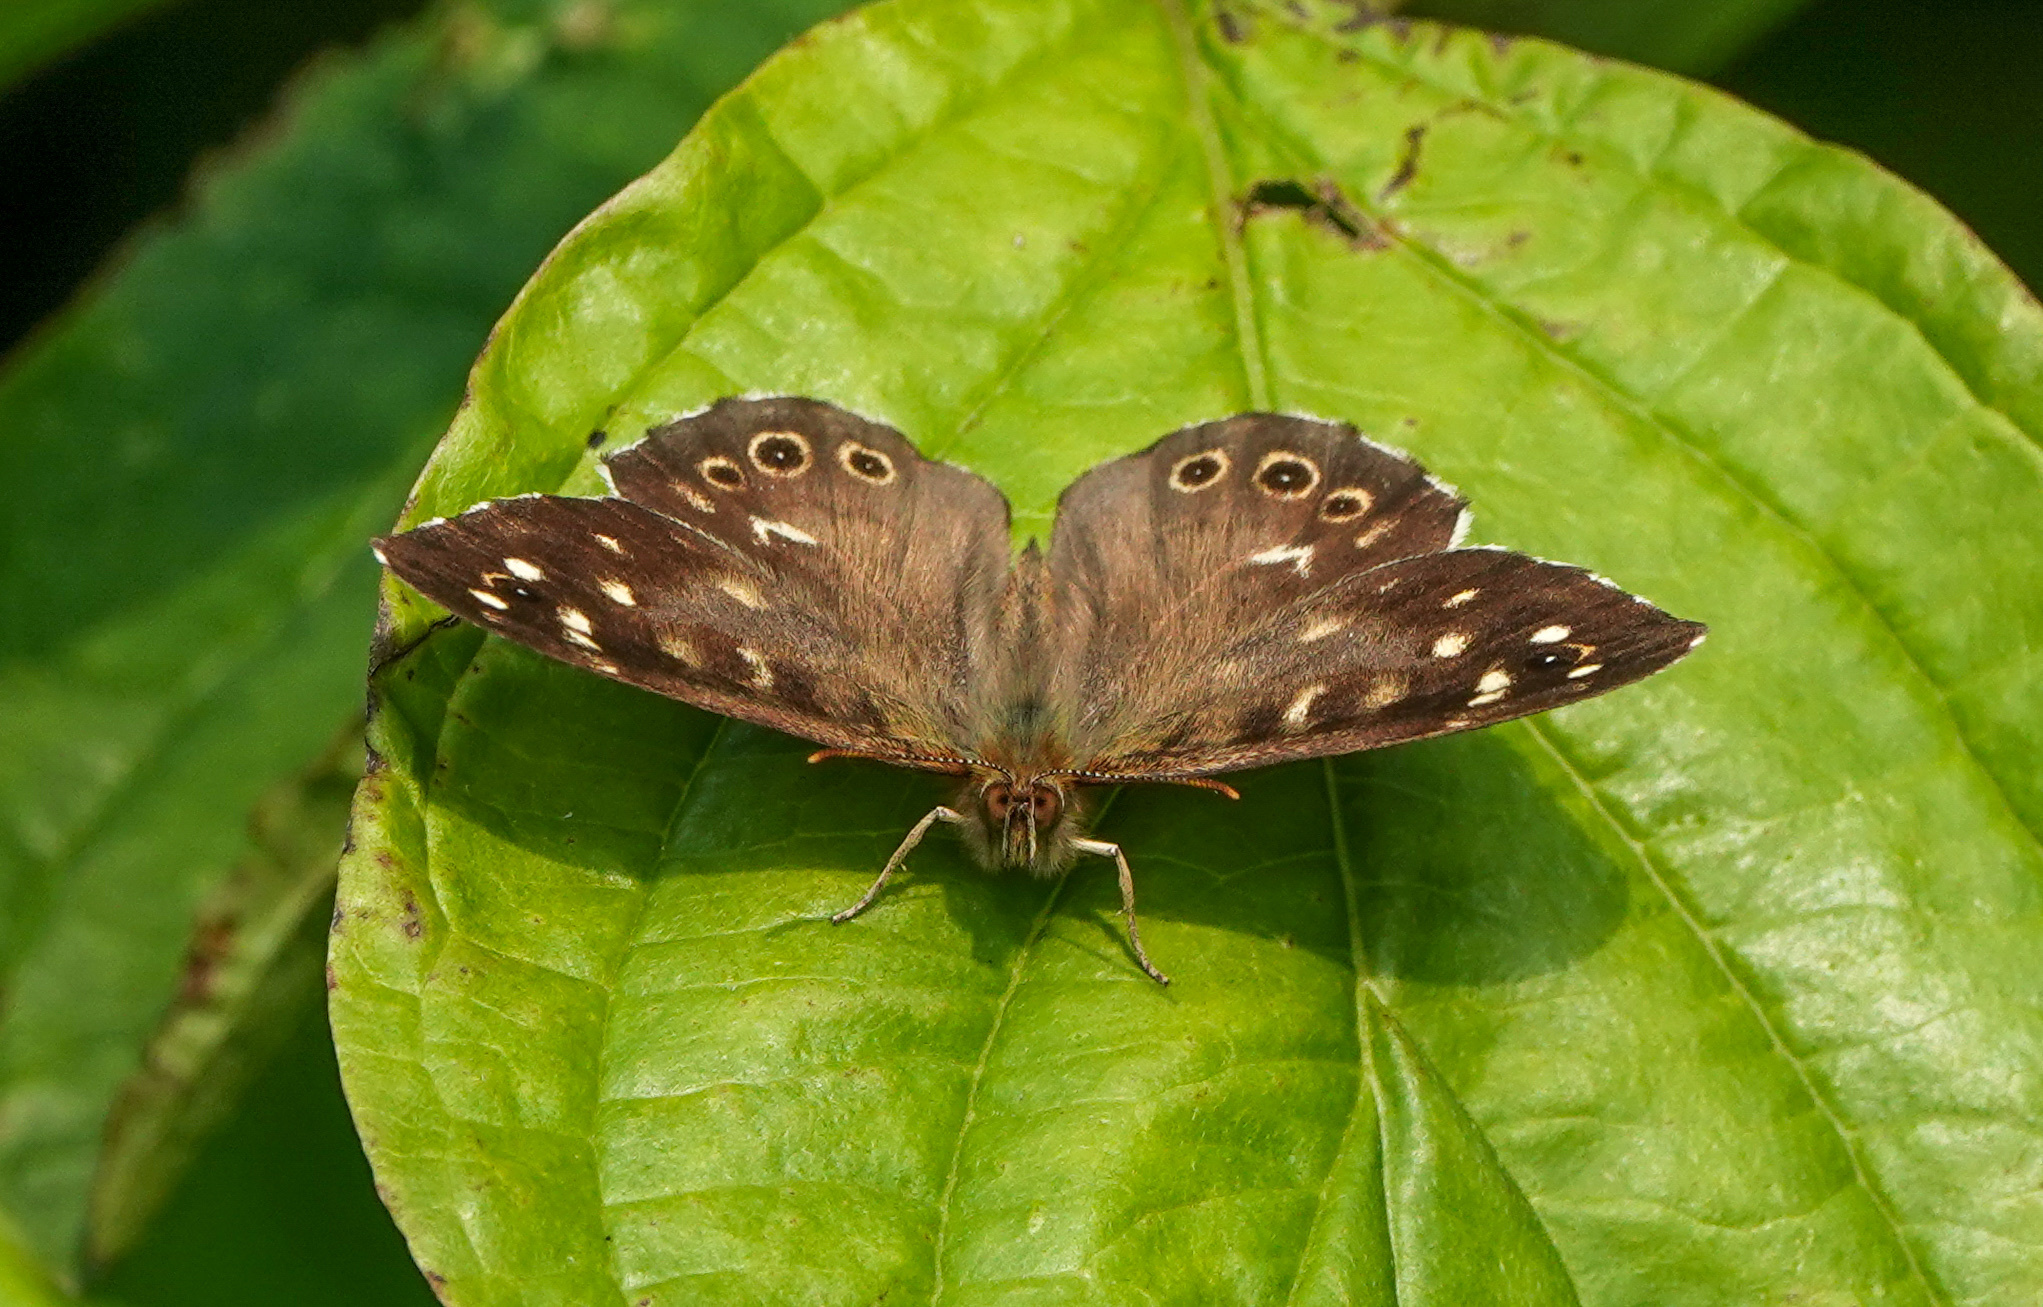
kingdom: Animalia
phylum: Arthropoda
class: Insecta
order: Lepidoptera
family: Nymphalidae
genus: Pararge
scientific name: Pararge aegeria
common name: Speckled wood
